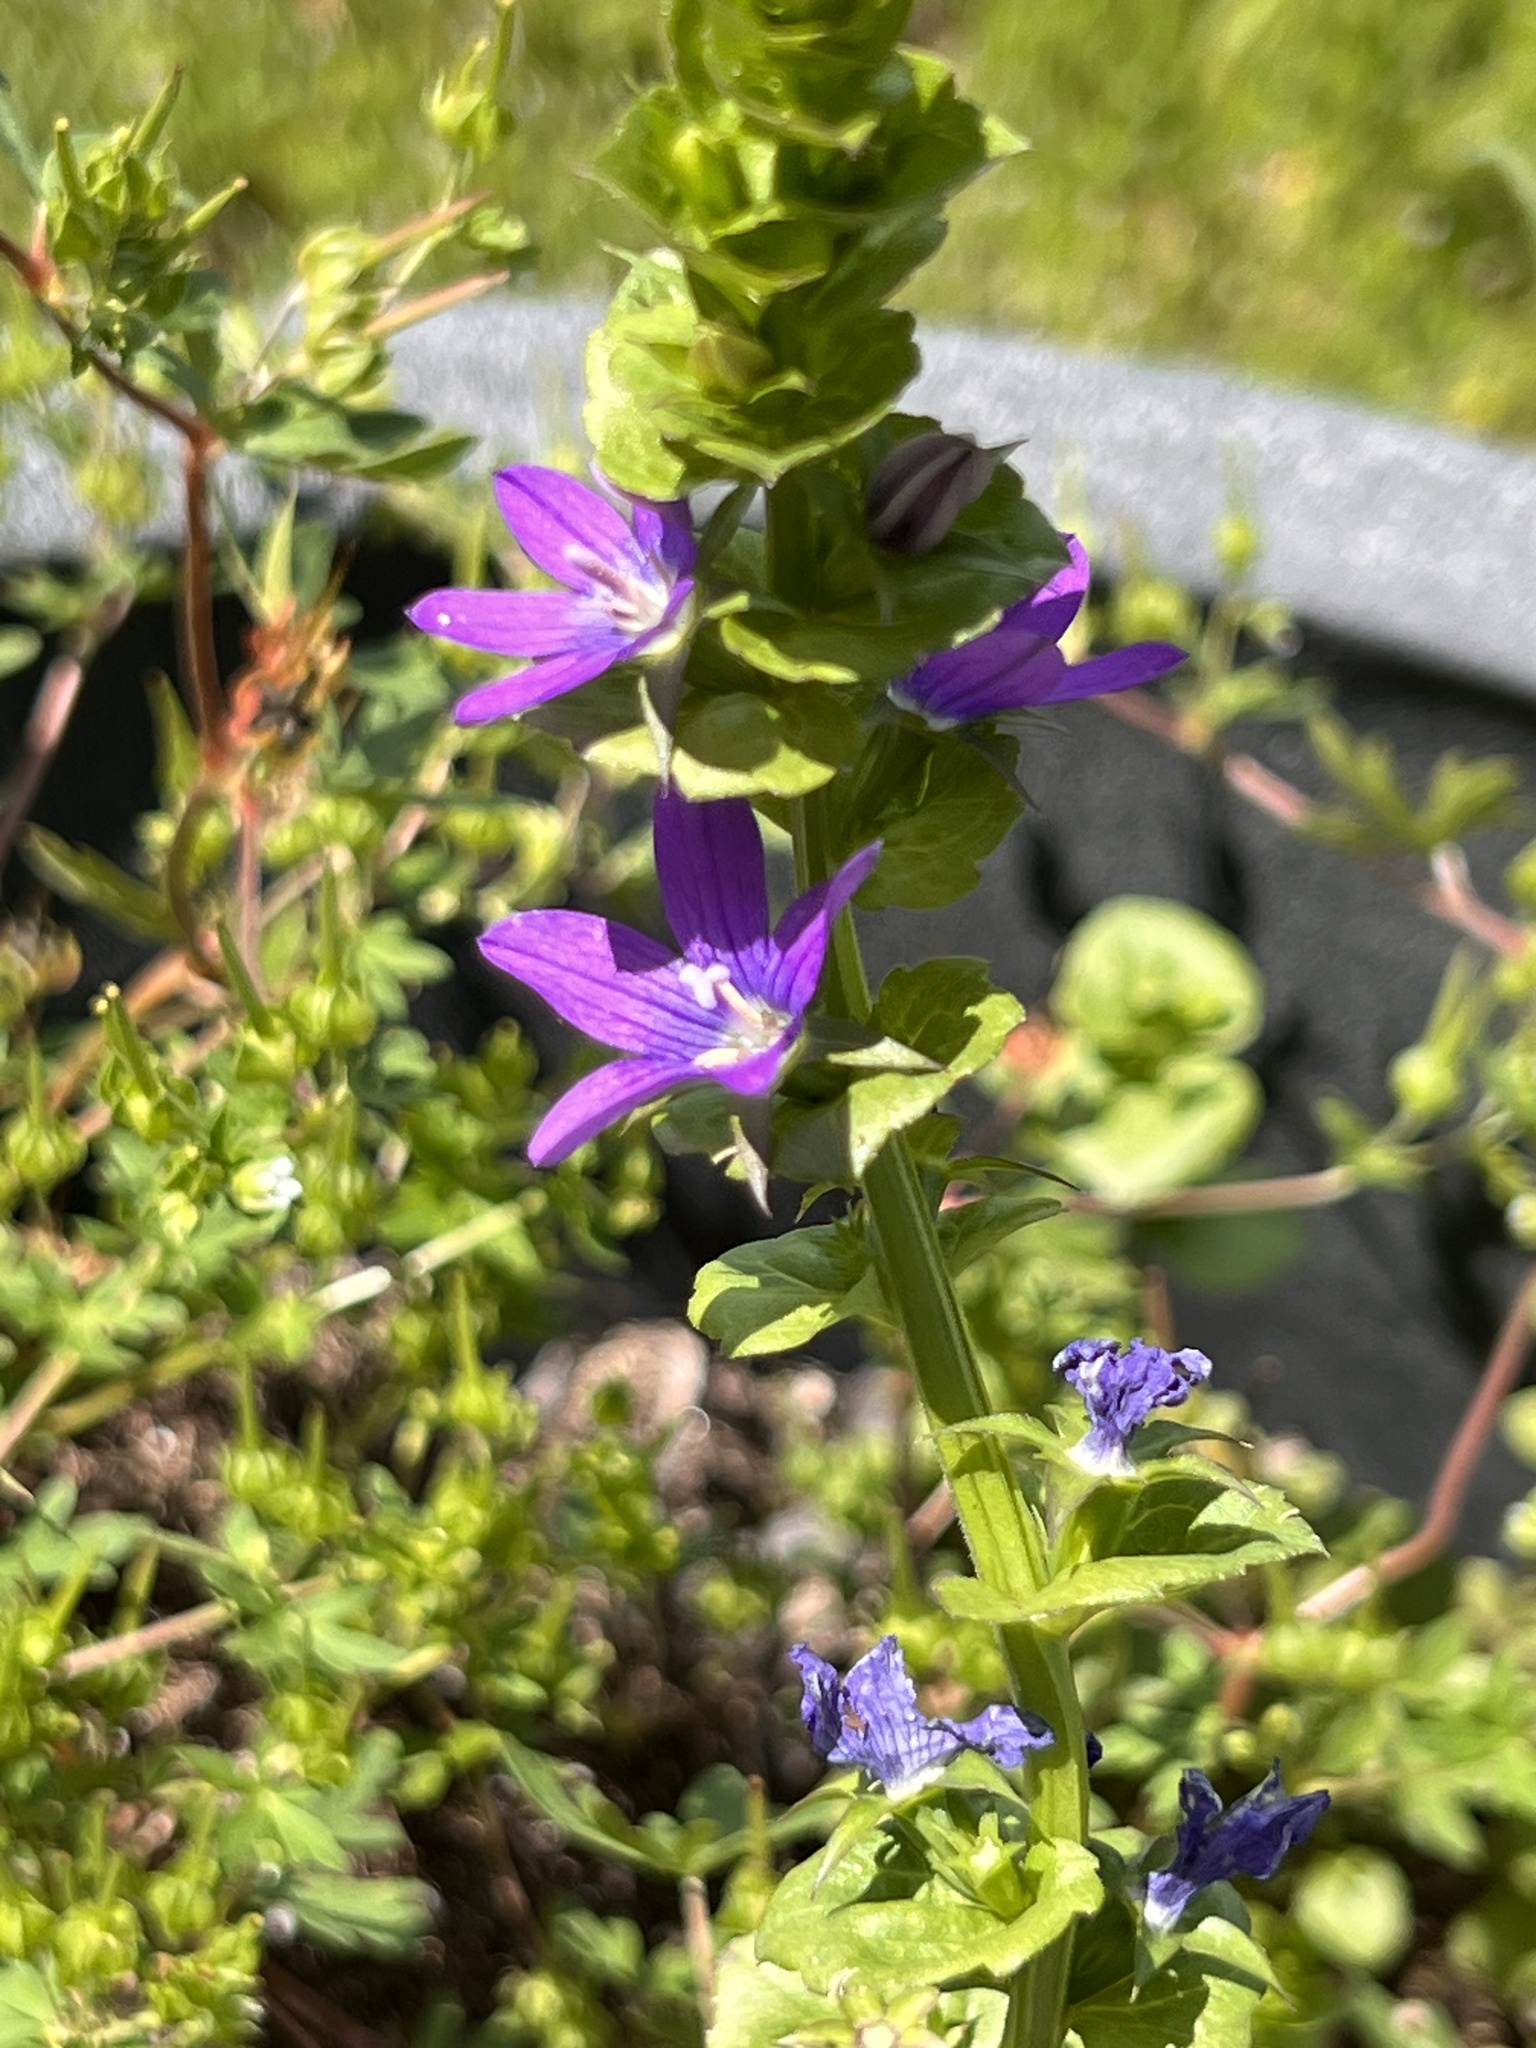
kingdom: Plantae
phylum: Tracheophyta
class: Magnoliopsida
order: Asterales
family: Campanulaceae
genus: Triodanis
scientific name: Triodanis perfoliata
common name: Clasping venus' looking-glass
